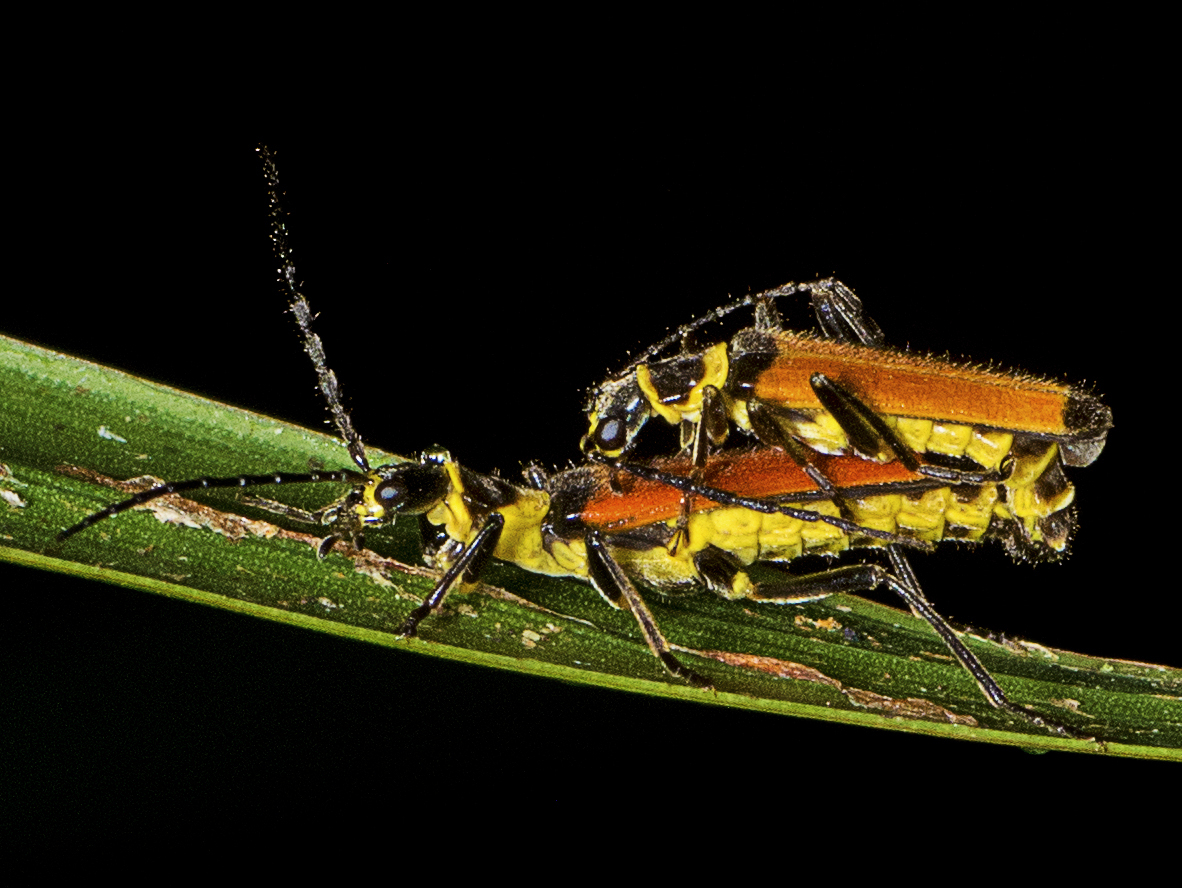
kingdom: Animalia
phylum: Arthropoda
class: Insecta
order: Coleoptera
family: Cantharidae
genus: Chauliognathus
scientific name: Chauliognathus
